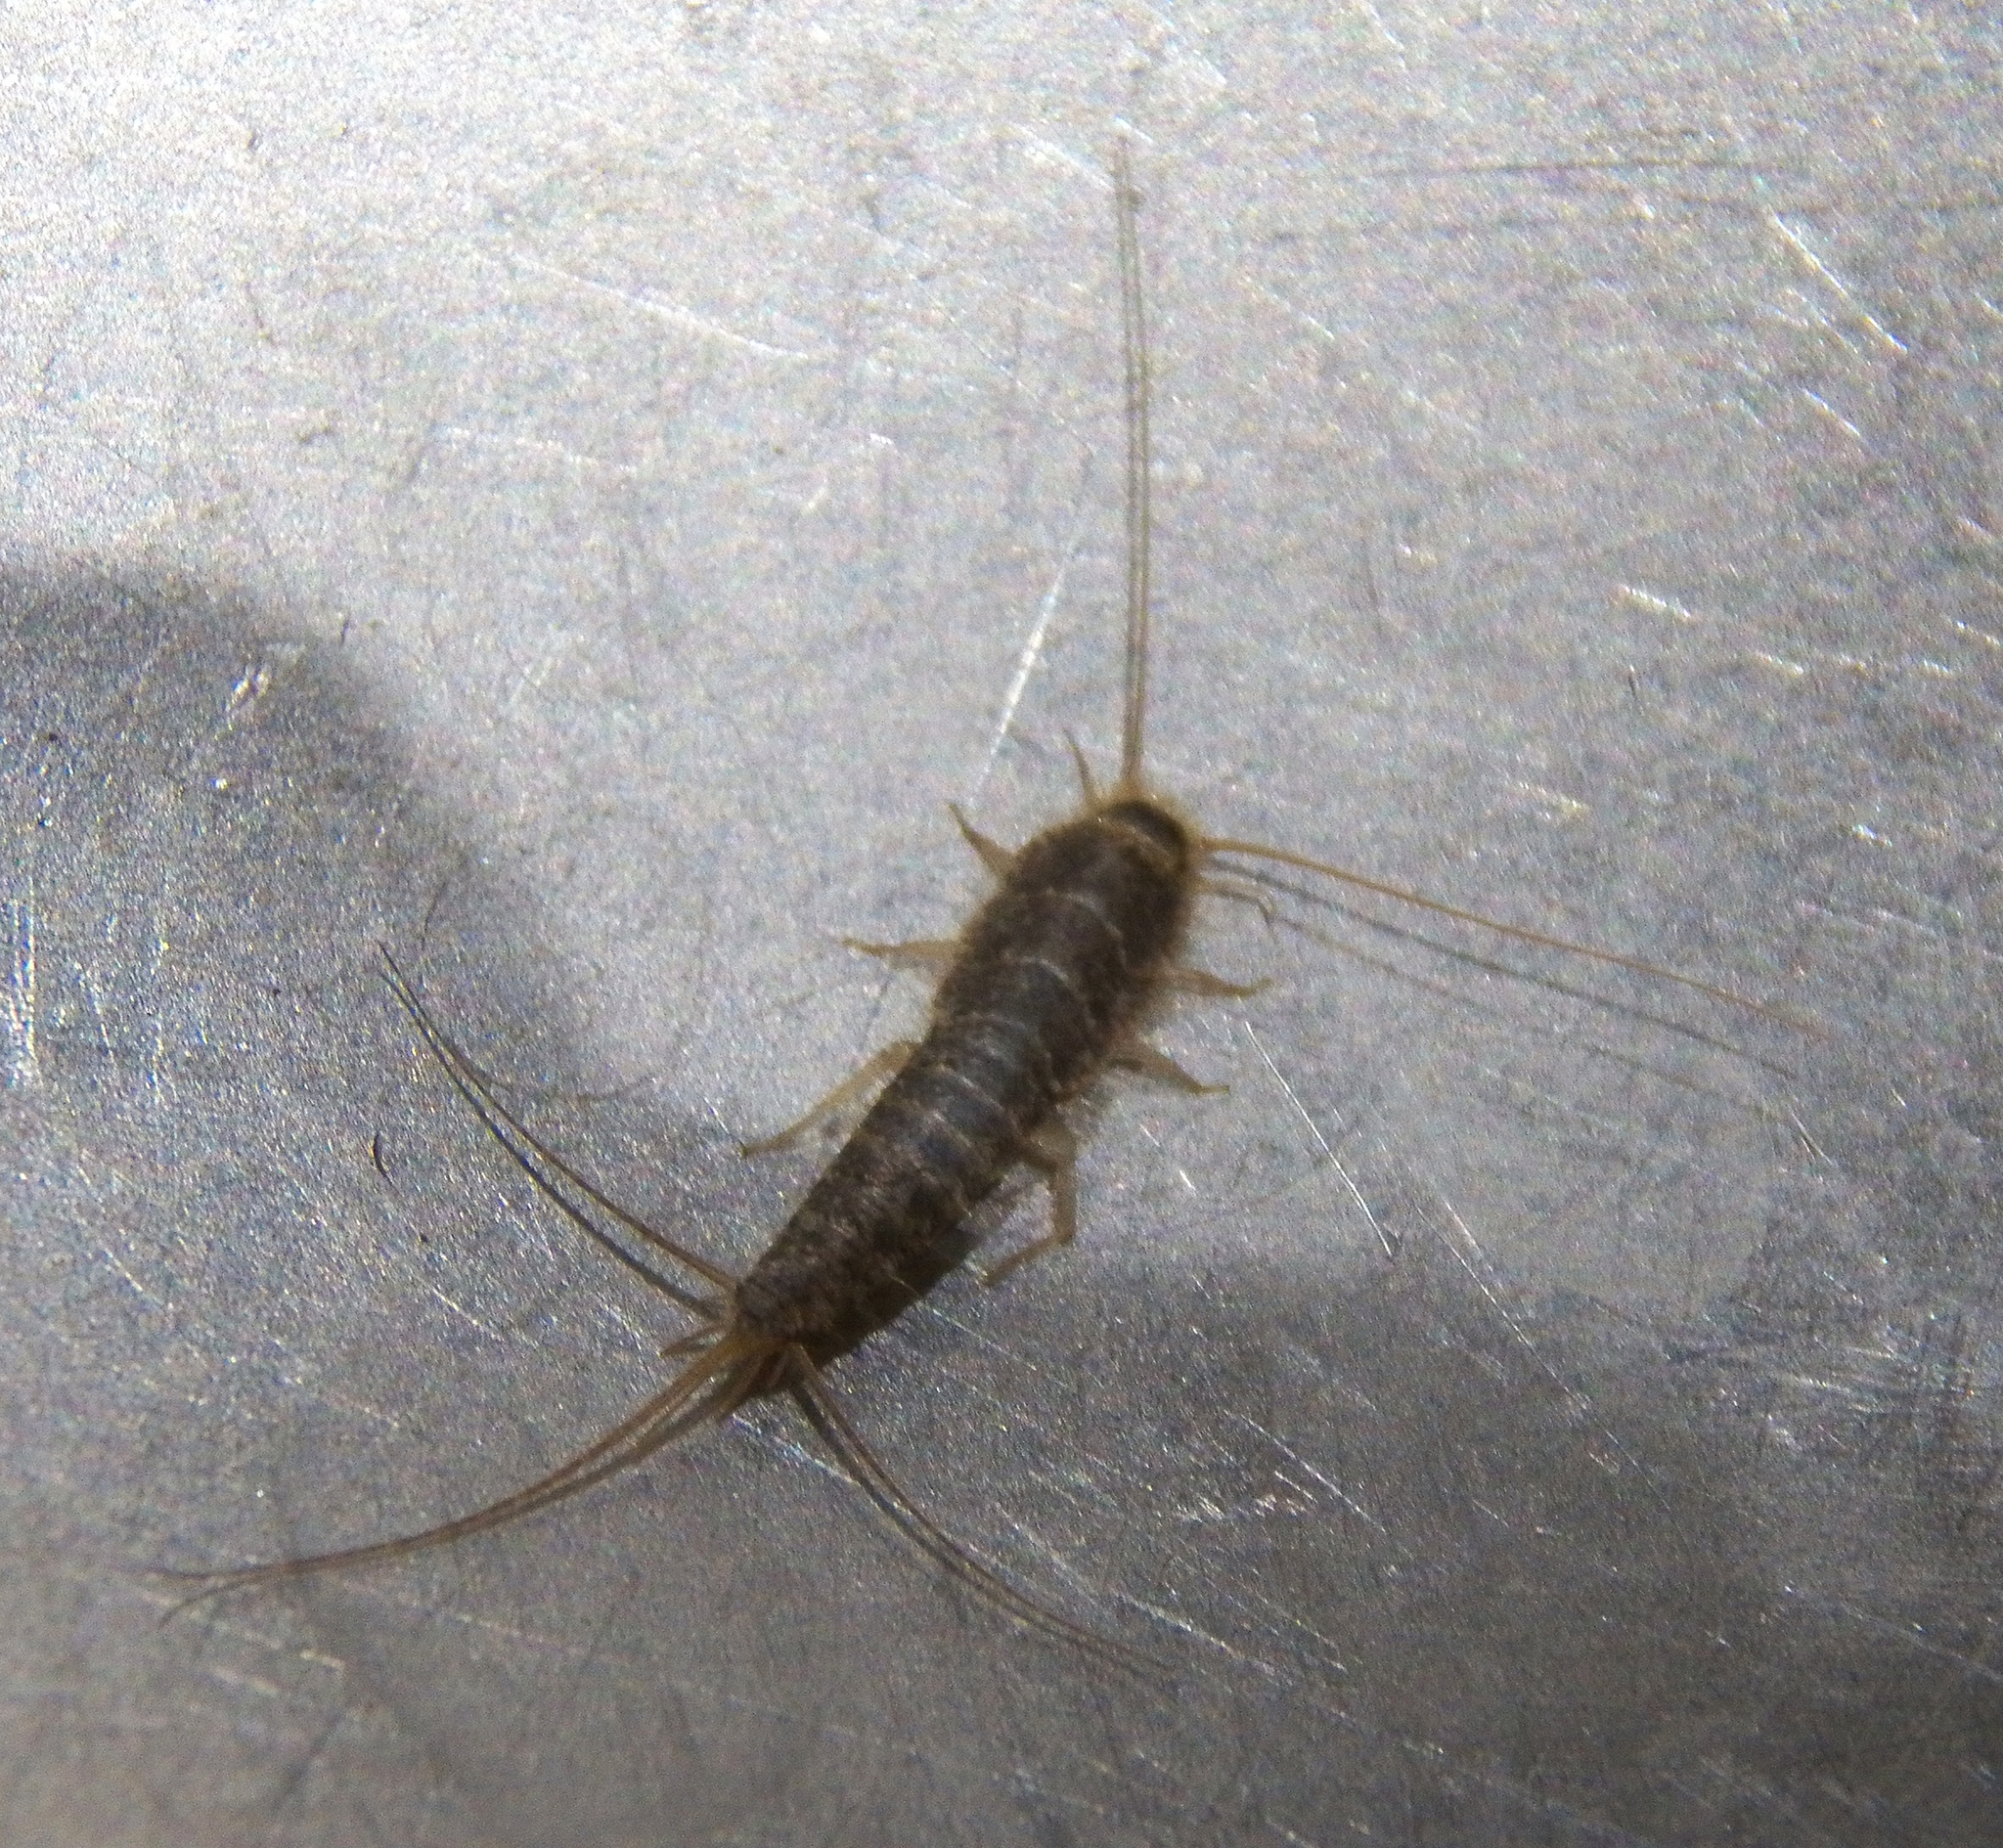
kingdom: Animalia
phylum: Arthropoda
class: Insecta
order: Zygentoma
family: Lepismatidae
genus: Ctenolepisma
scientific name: Ctenolepisma longicaudatum
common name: Silverfish
